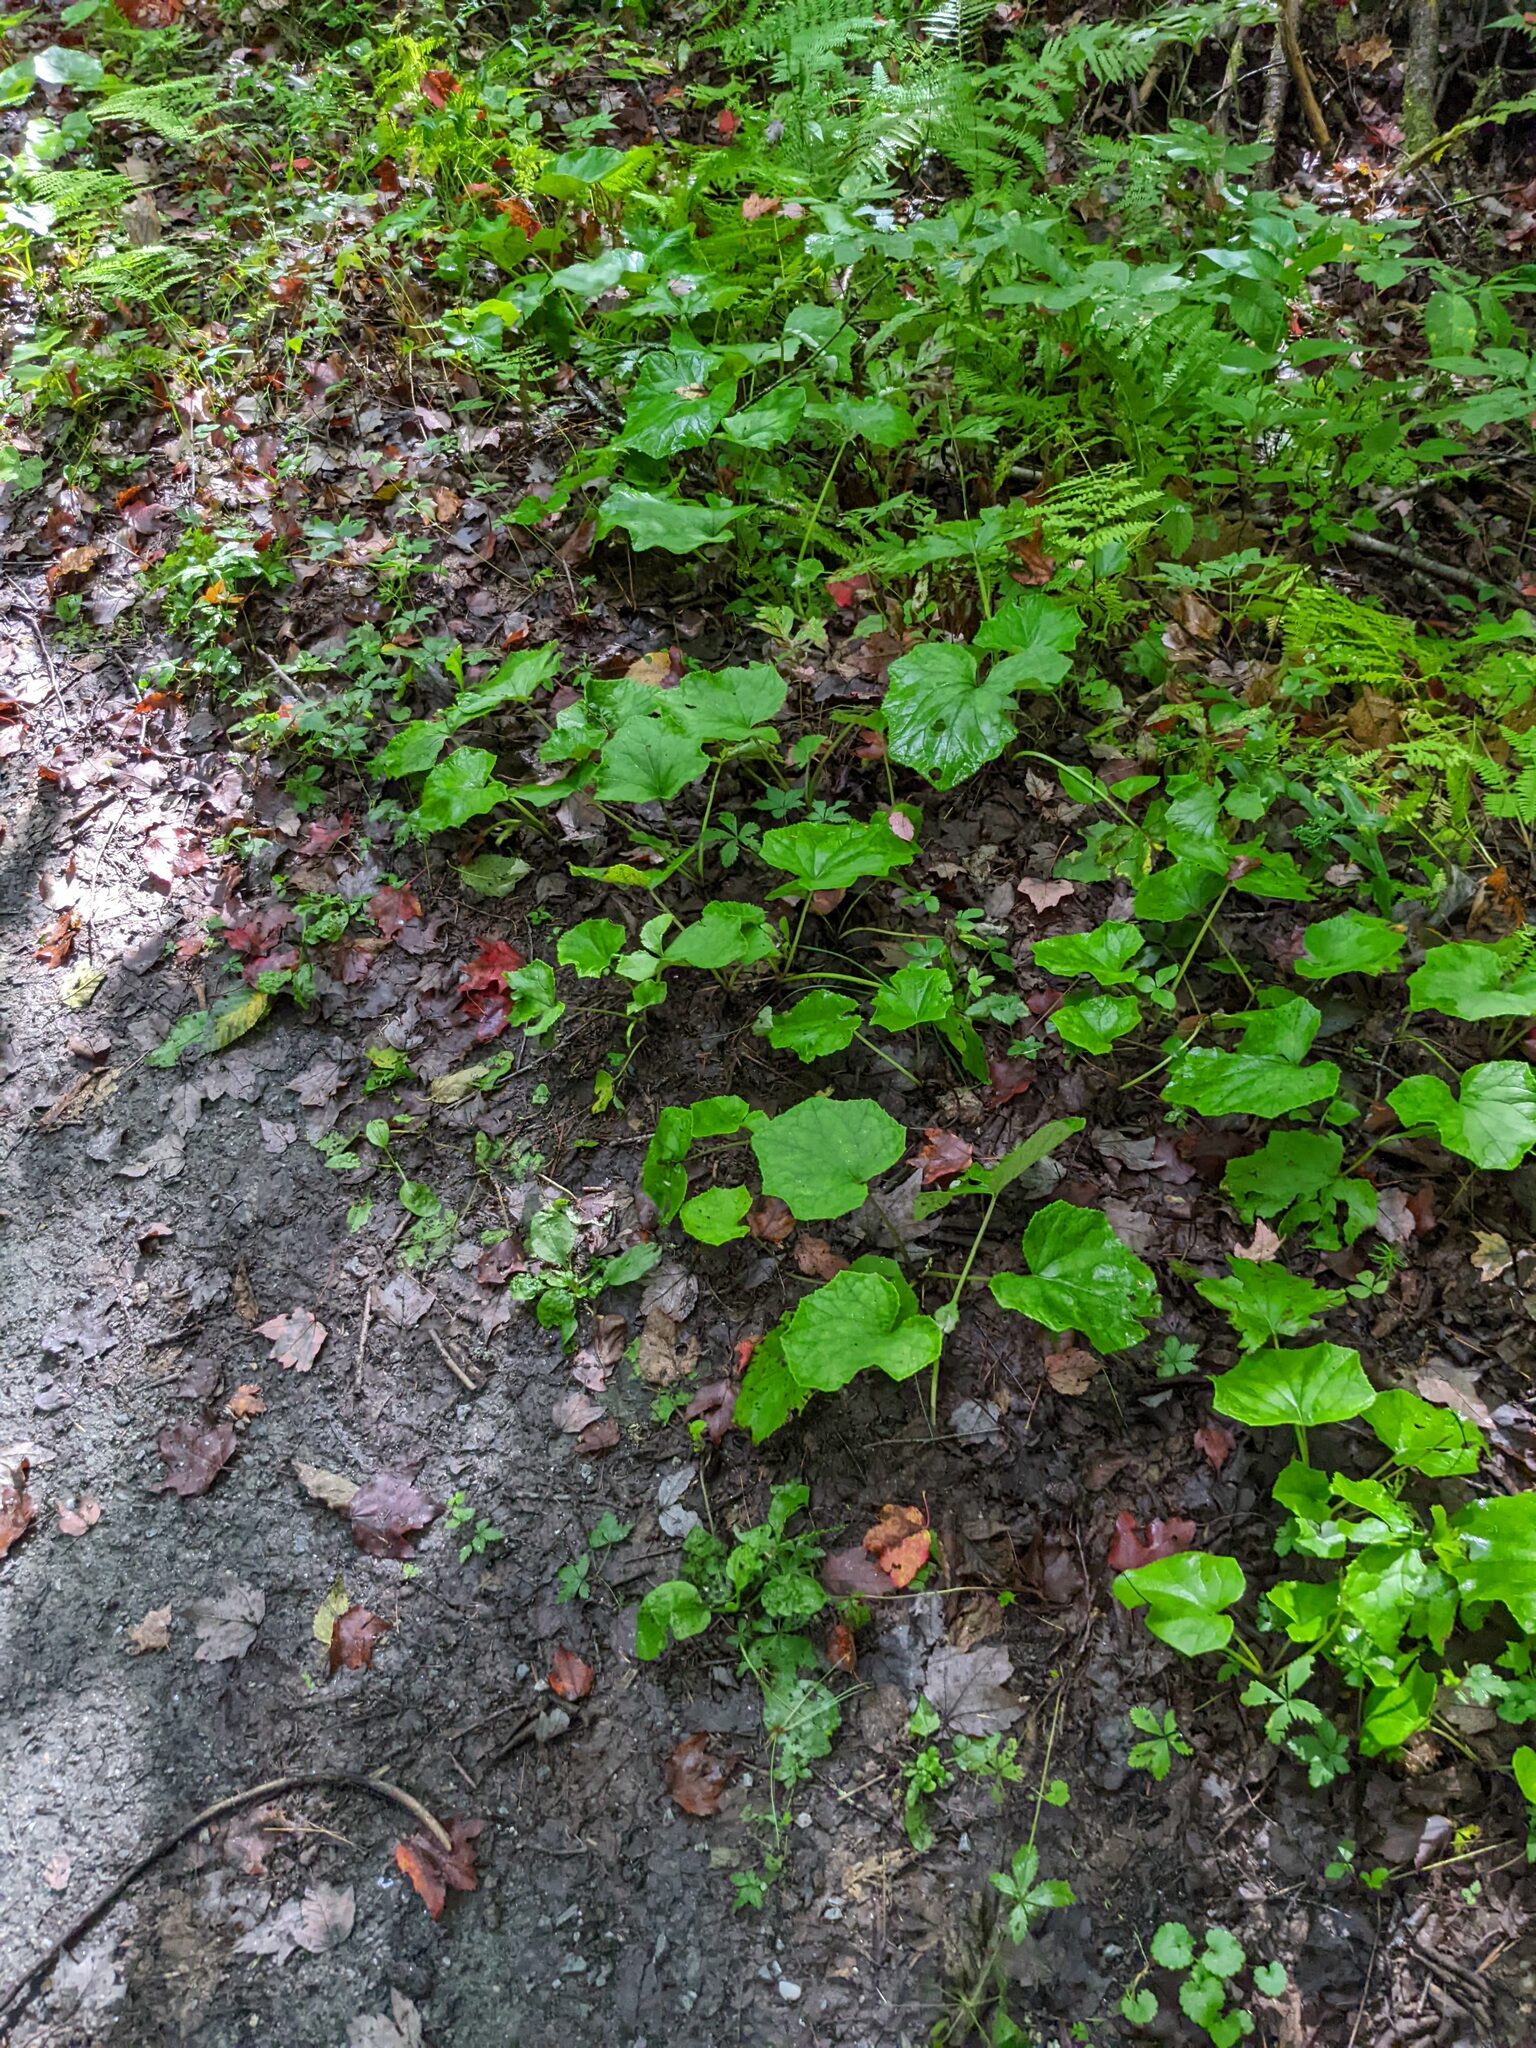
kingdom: Plantae
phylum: Tracheophyta
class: Magnoliopsida
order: Asterales
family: Asteraceae
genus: Tussilago
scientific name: Tussilago farfara
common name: Coltsfoot
